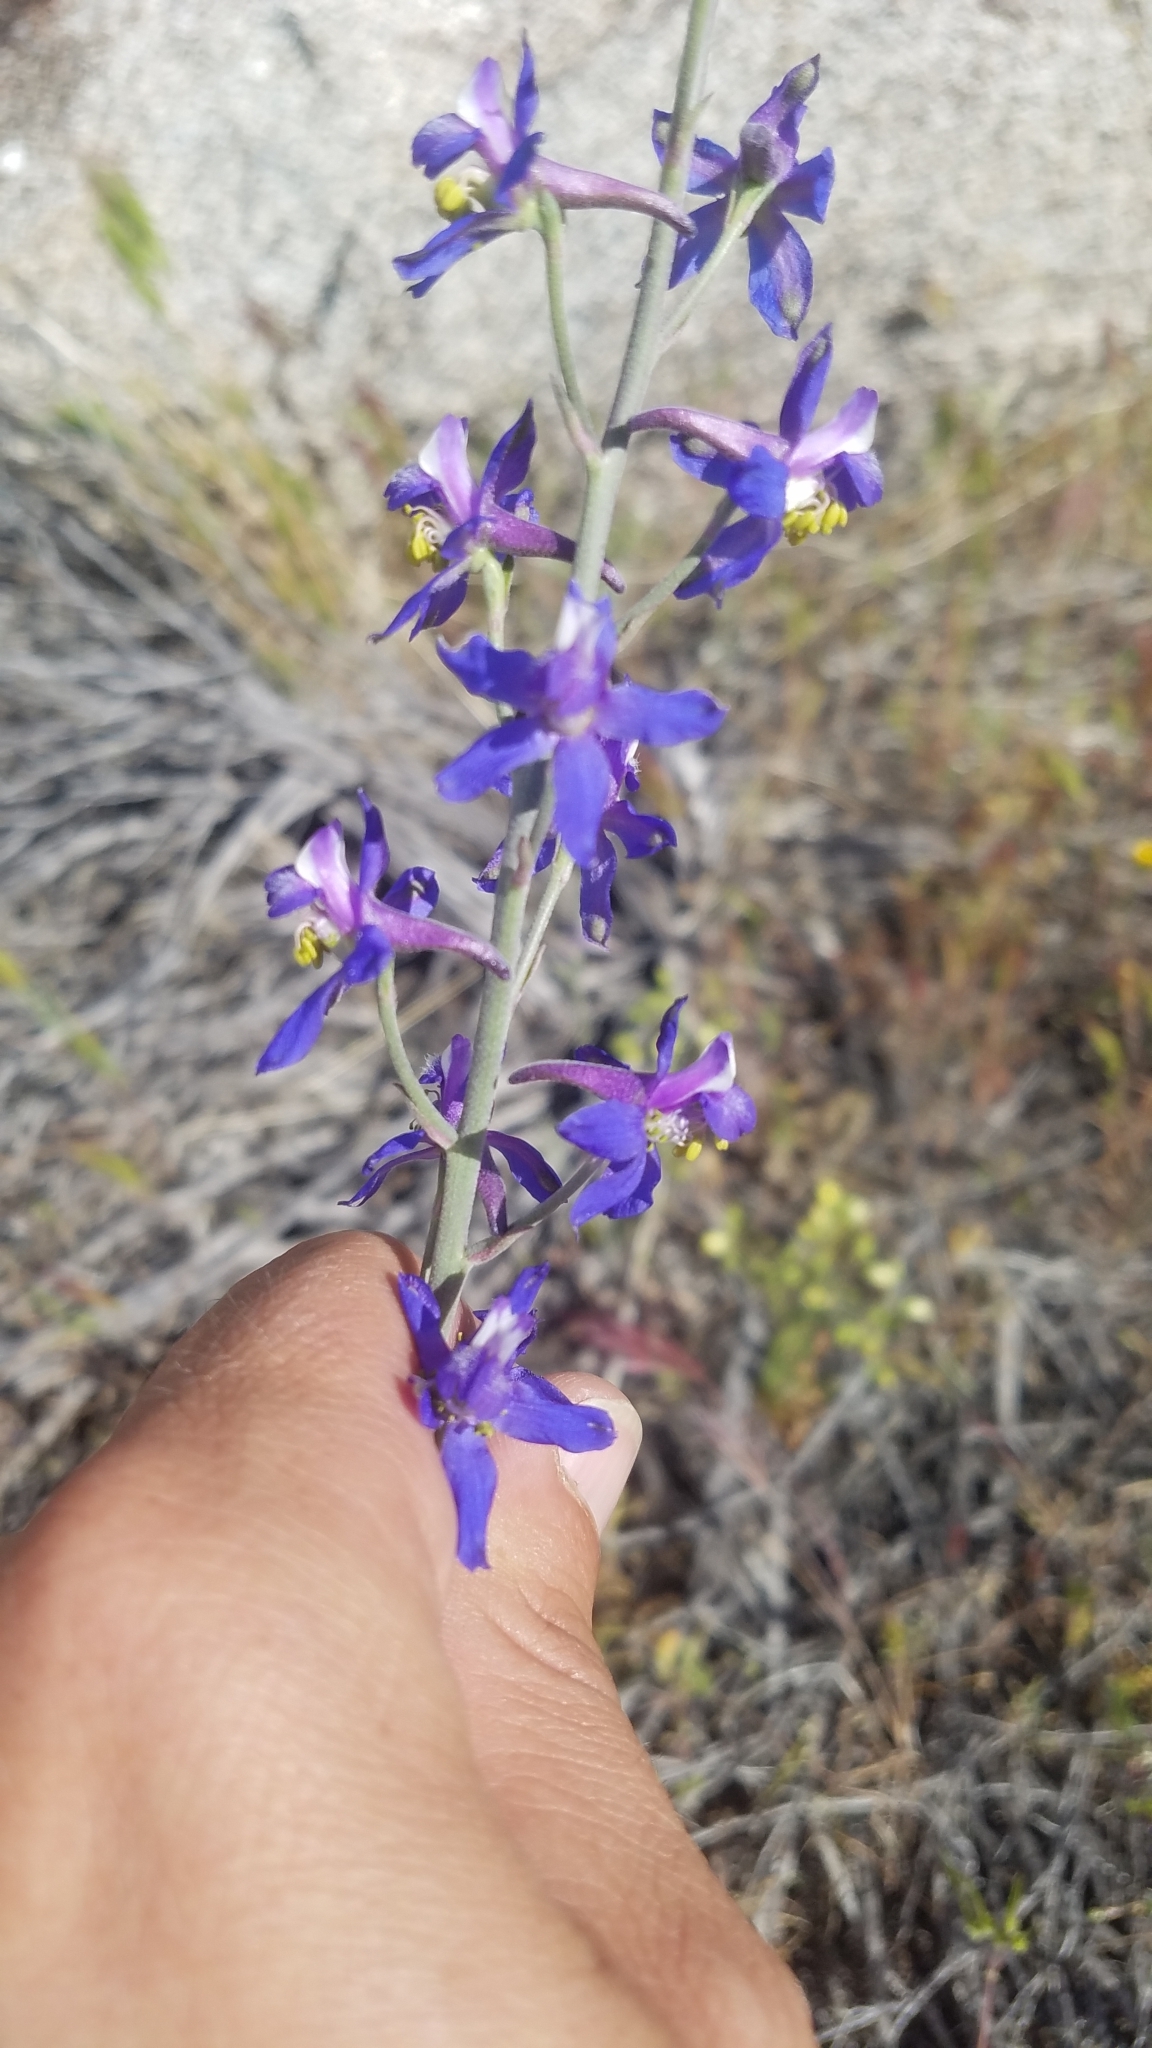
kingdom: Plantae
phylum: Tracheophyta
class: Magnoliopsida
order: Ranunculales
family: Ranunculaceae
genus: Delphinium
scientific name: Delphinium parishii
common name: Apache larkspur
